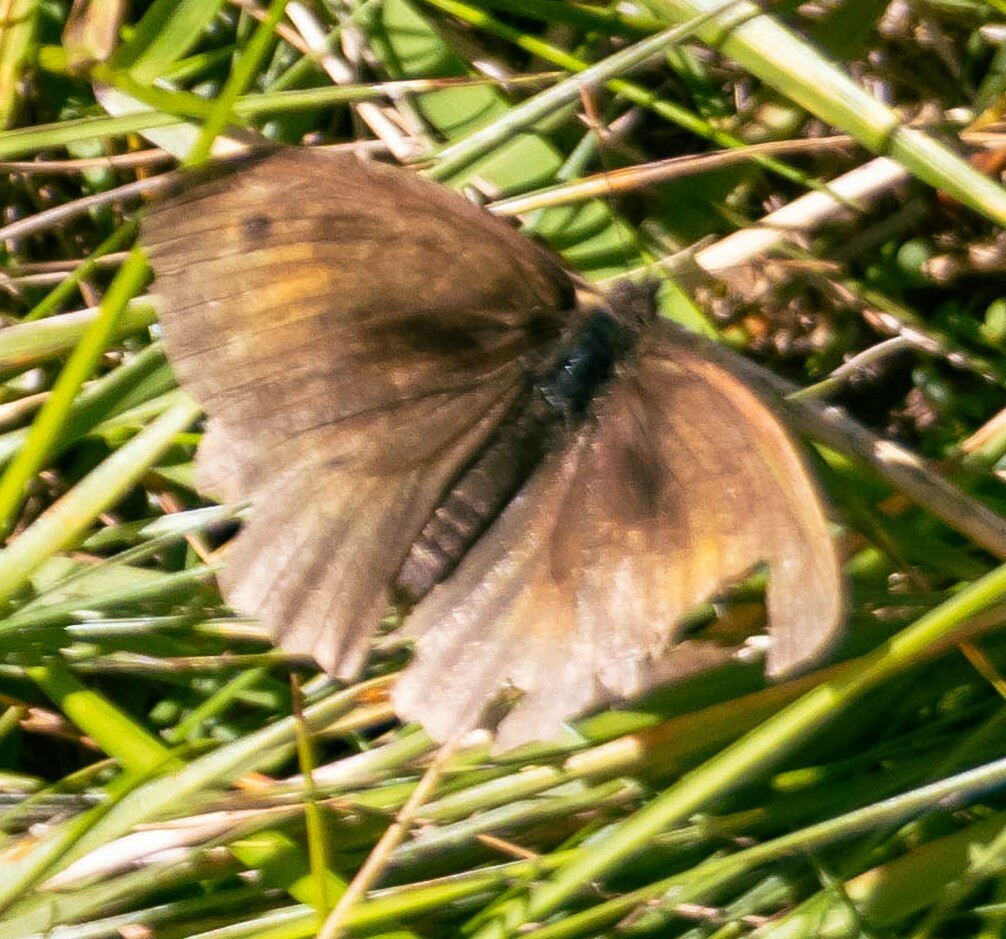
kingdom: Animalia
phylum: Arthropoda
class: Insecta
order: Lepidoptera
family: Nymphalidae
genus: Maniola
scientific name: Maniola jurtina
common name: Meadow brown
